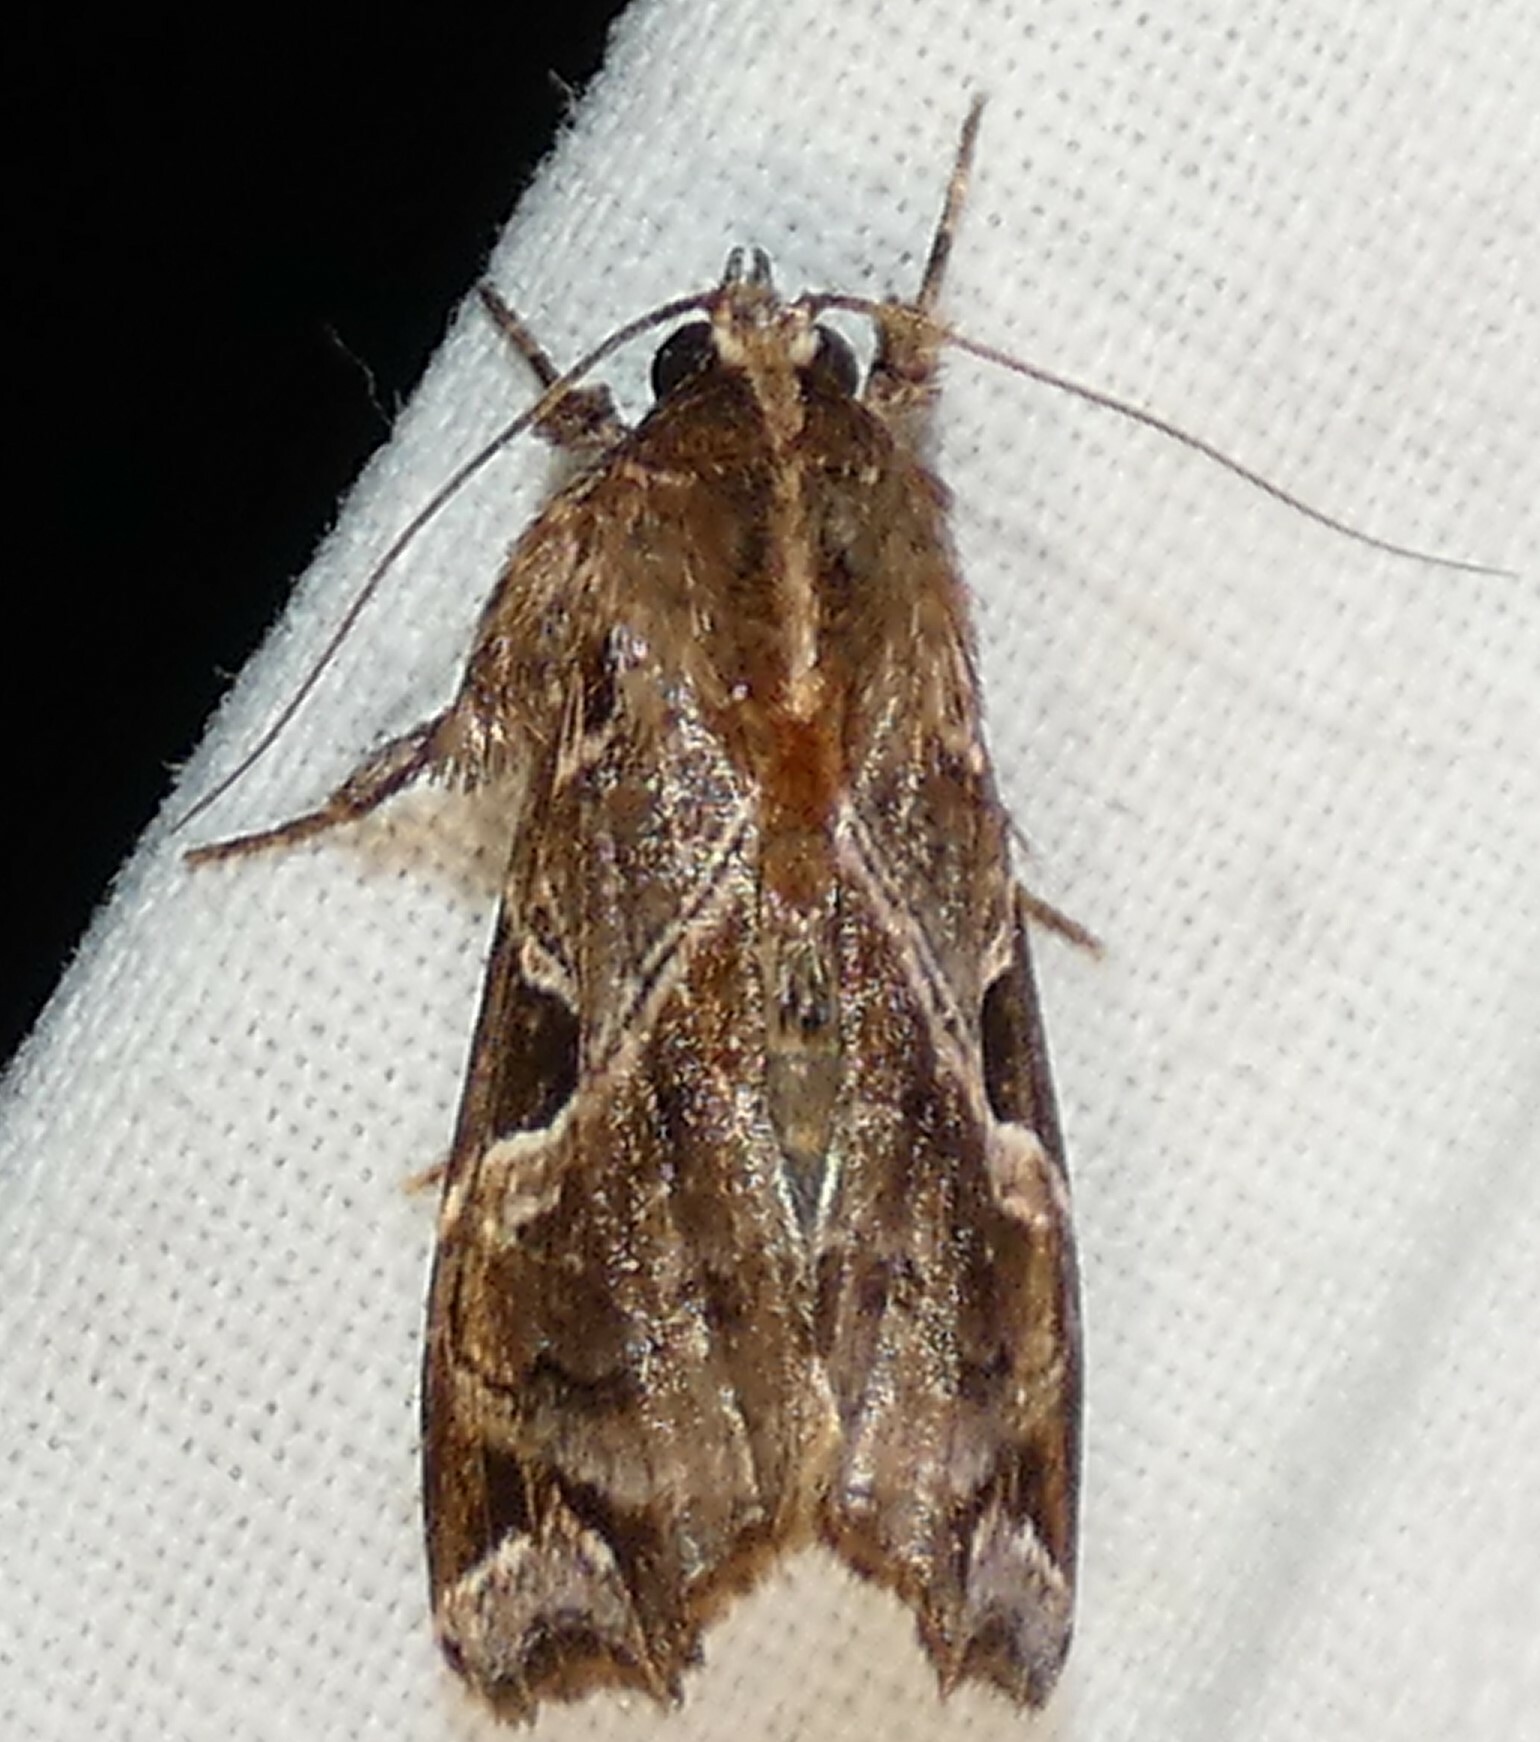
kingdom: Animalia
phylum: Arthropoda
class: Insecta
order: Lepidoptera
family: Noctuidae
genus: Callopistria
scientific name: Callopistria floridensis
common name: Florida fern moth
